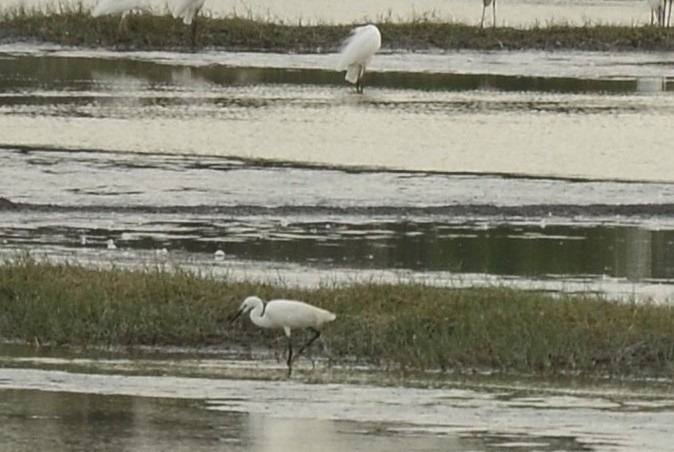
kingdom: Animalia
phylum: Chordata
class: Aves
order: Pelecaniformes
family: Ardeidae
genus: Egretta
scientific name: Egretta garzetta
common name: Little egret
